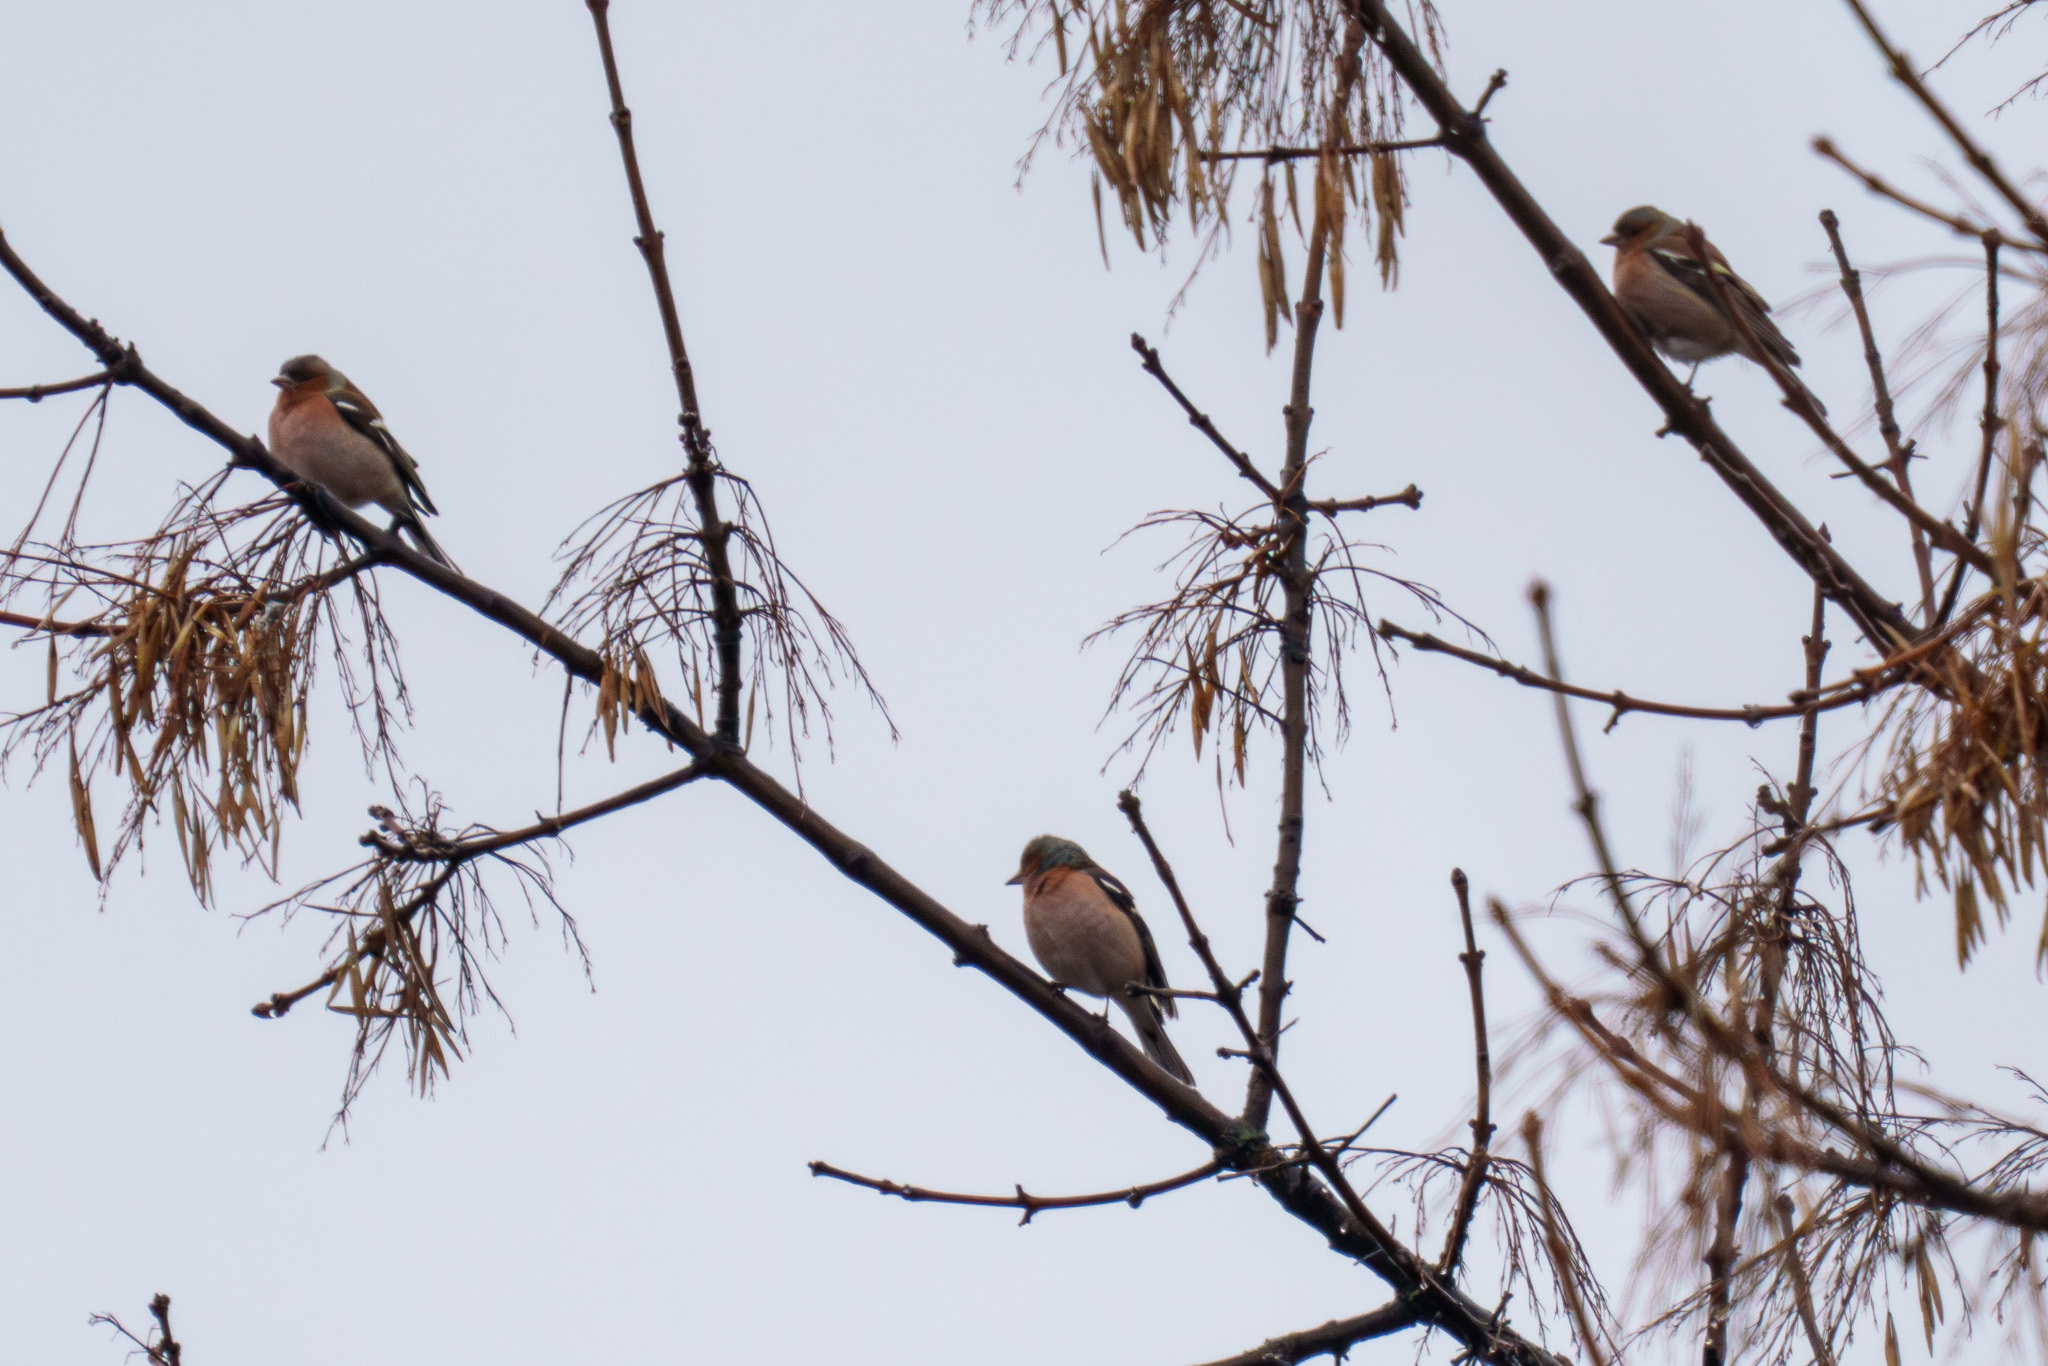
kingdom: Animalia
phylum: Chordata
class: Aves
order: Passeriformes
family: Fringillidae
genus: Fringilla
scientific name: Fringilla coelebs
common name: Common chaffinch
